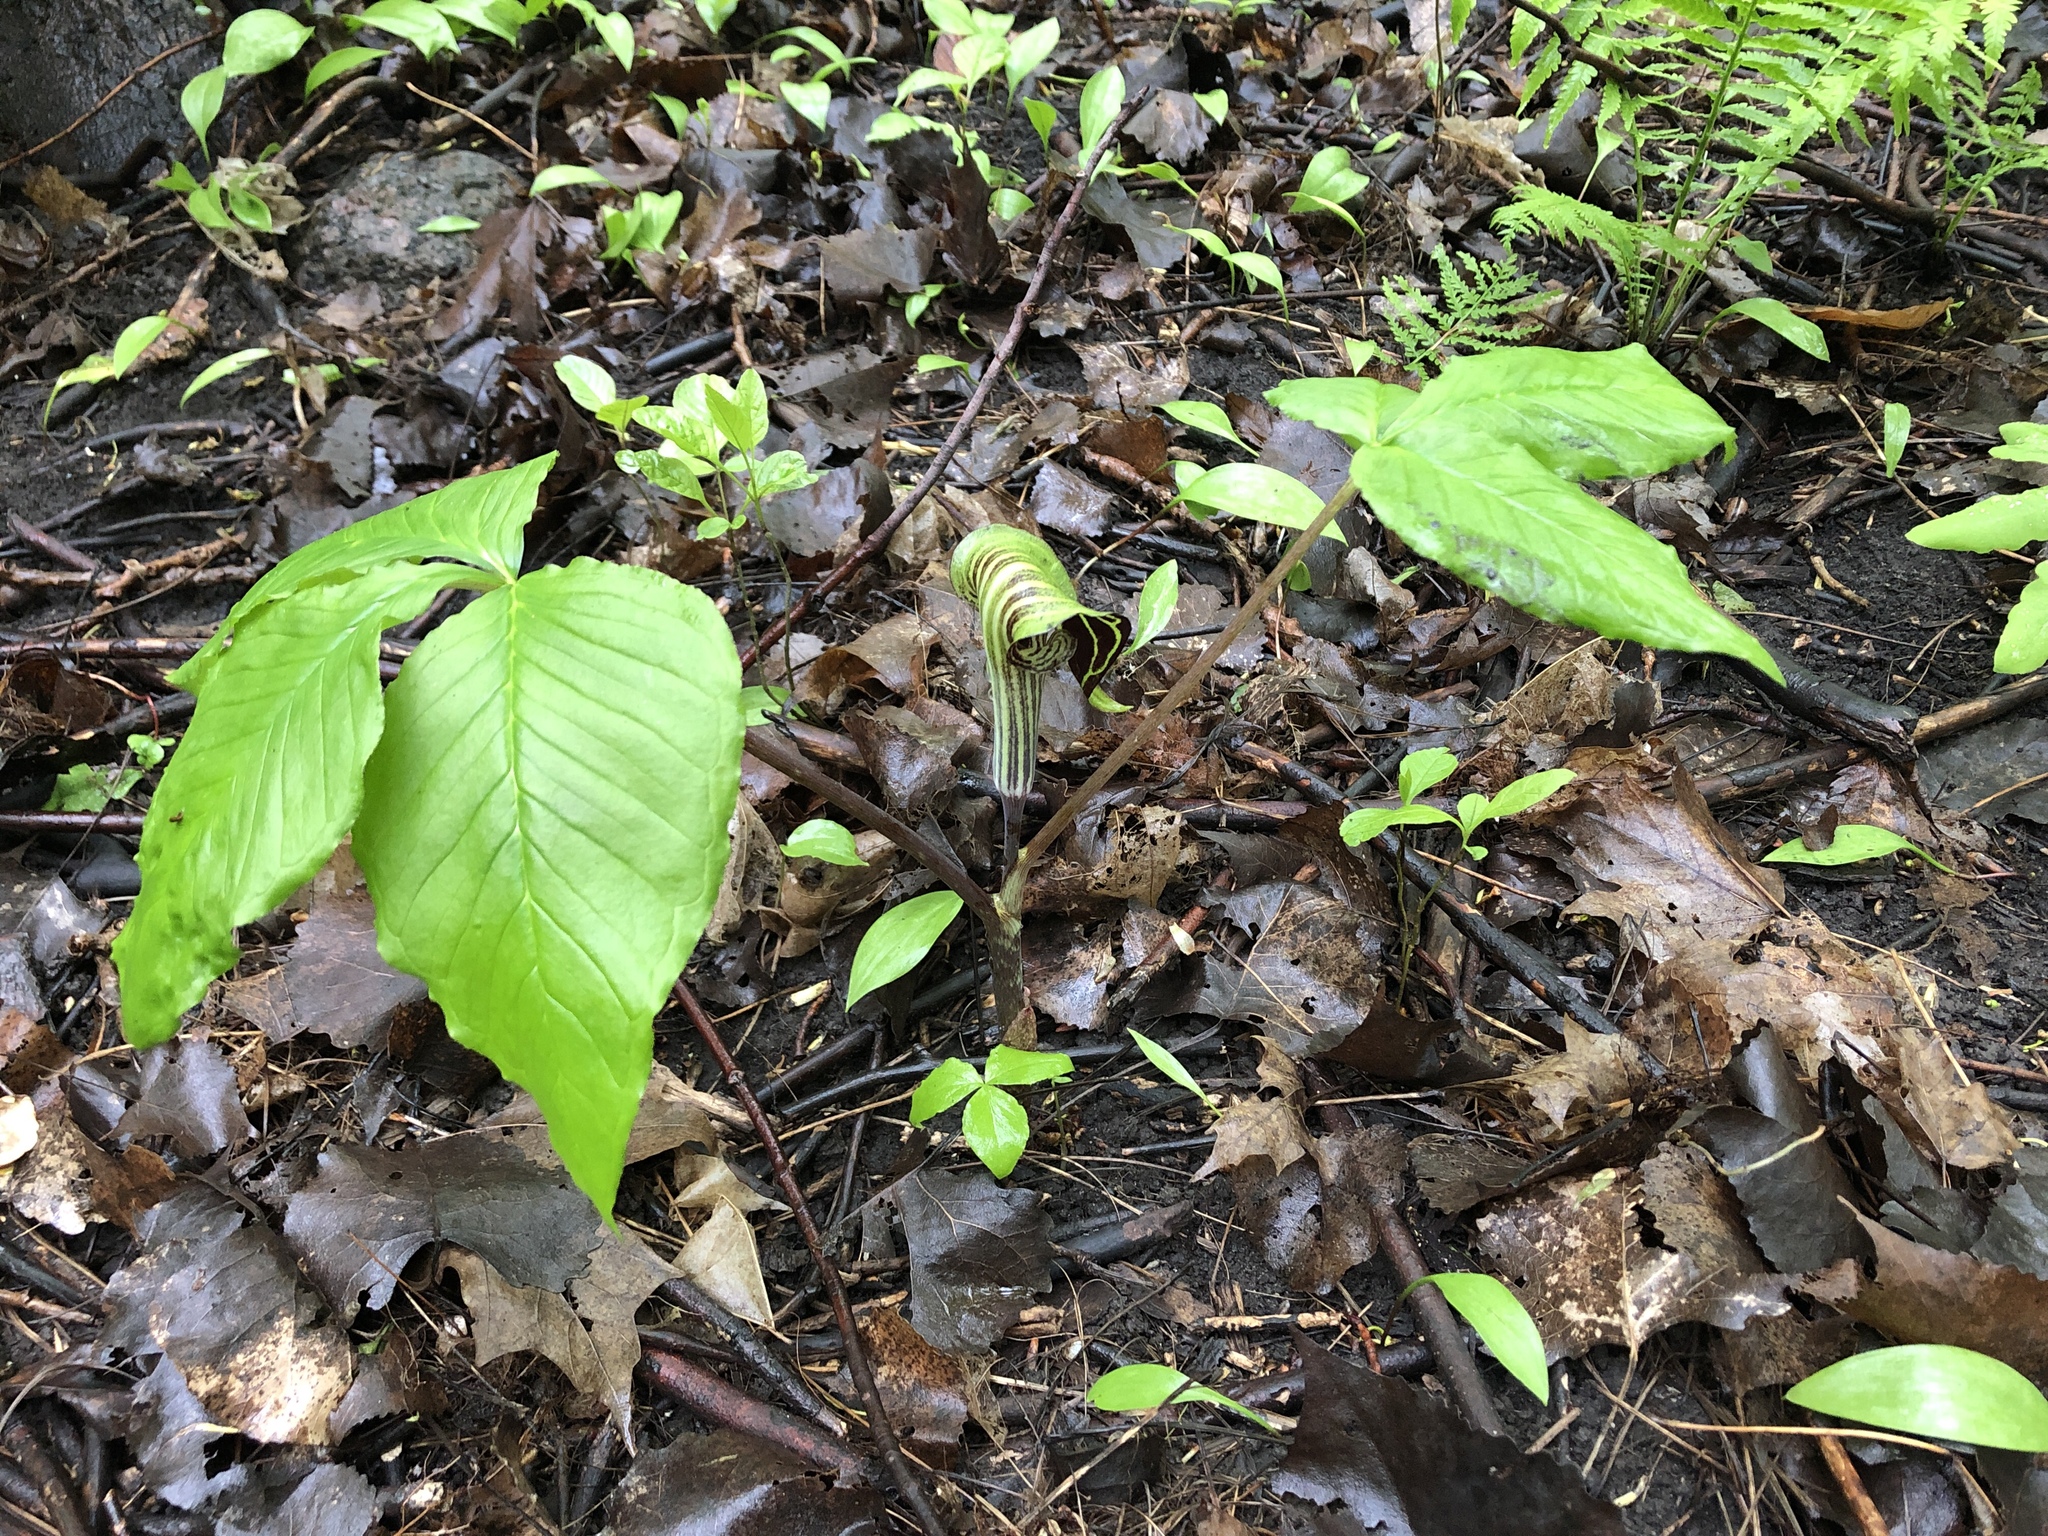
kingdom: Plantae
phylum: Tracheophyta
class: Liliopsida
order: Alismatales
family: Araceae
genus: Arisaema
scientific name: Arisaema triphyllum
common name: Jack-in-the-pulpit
